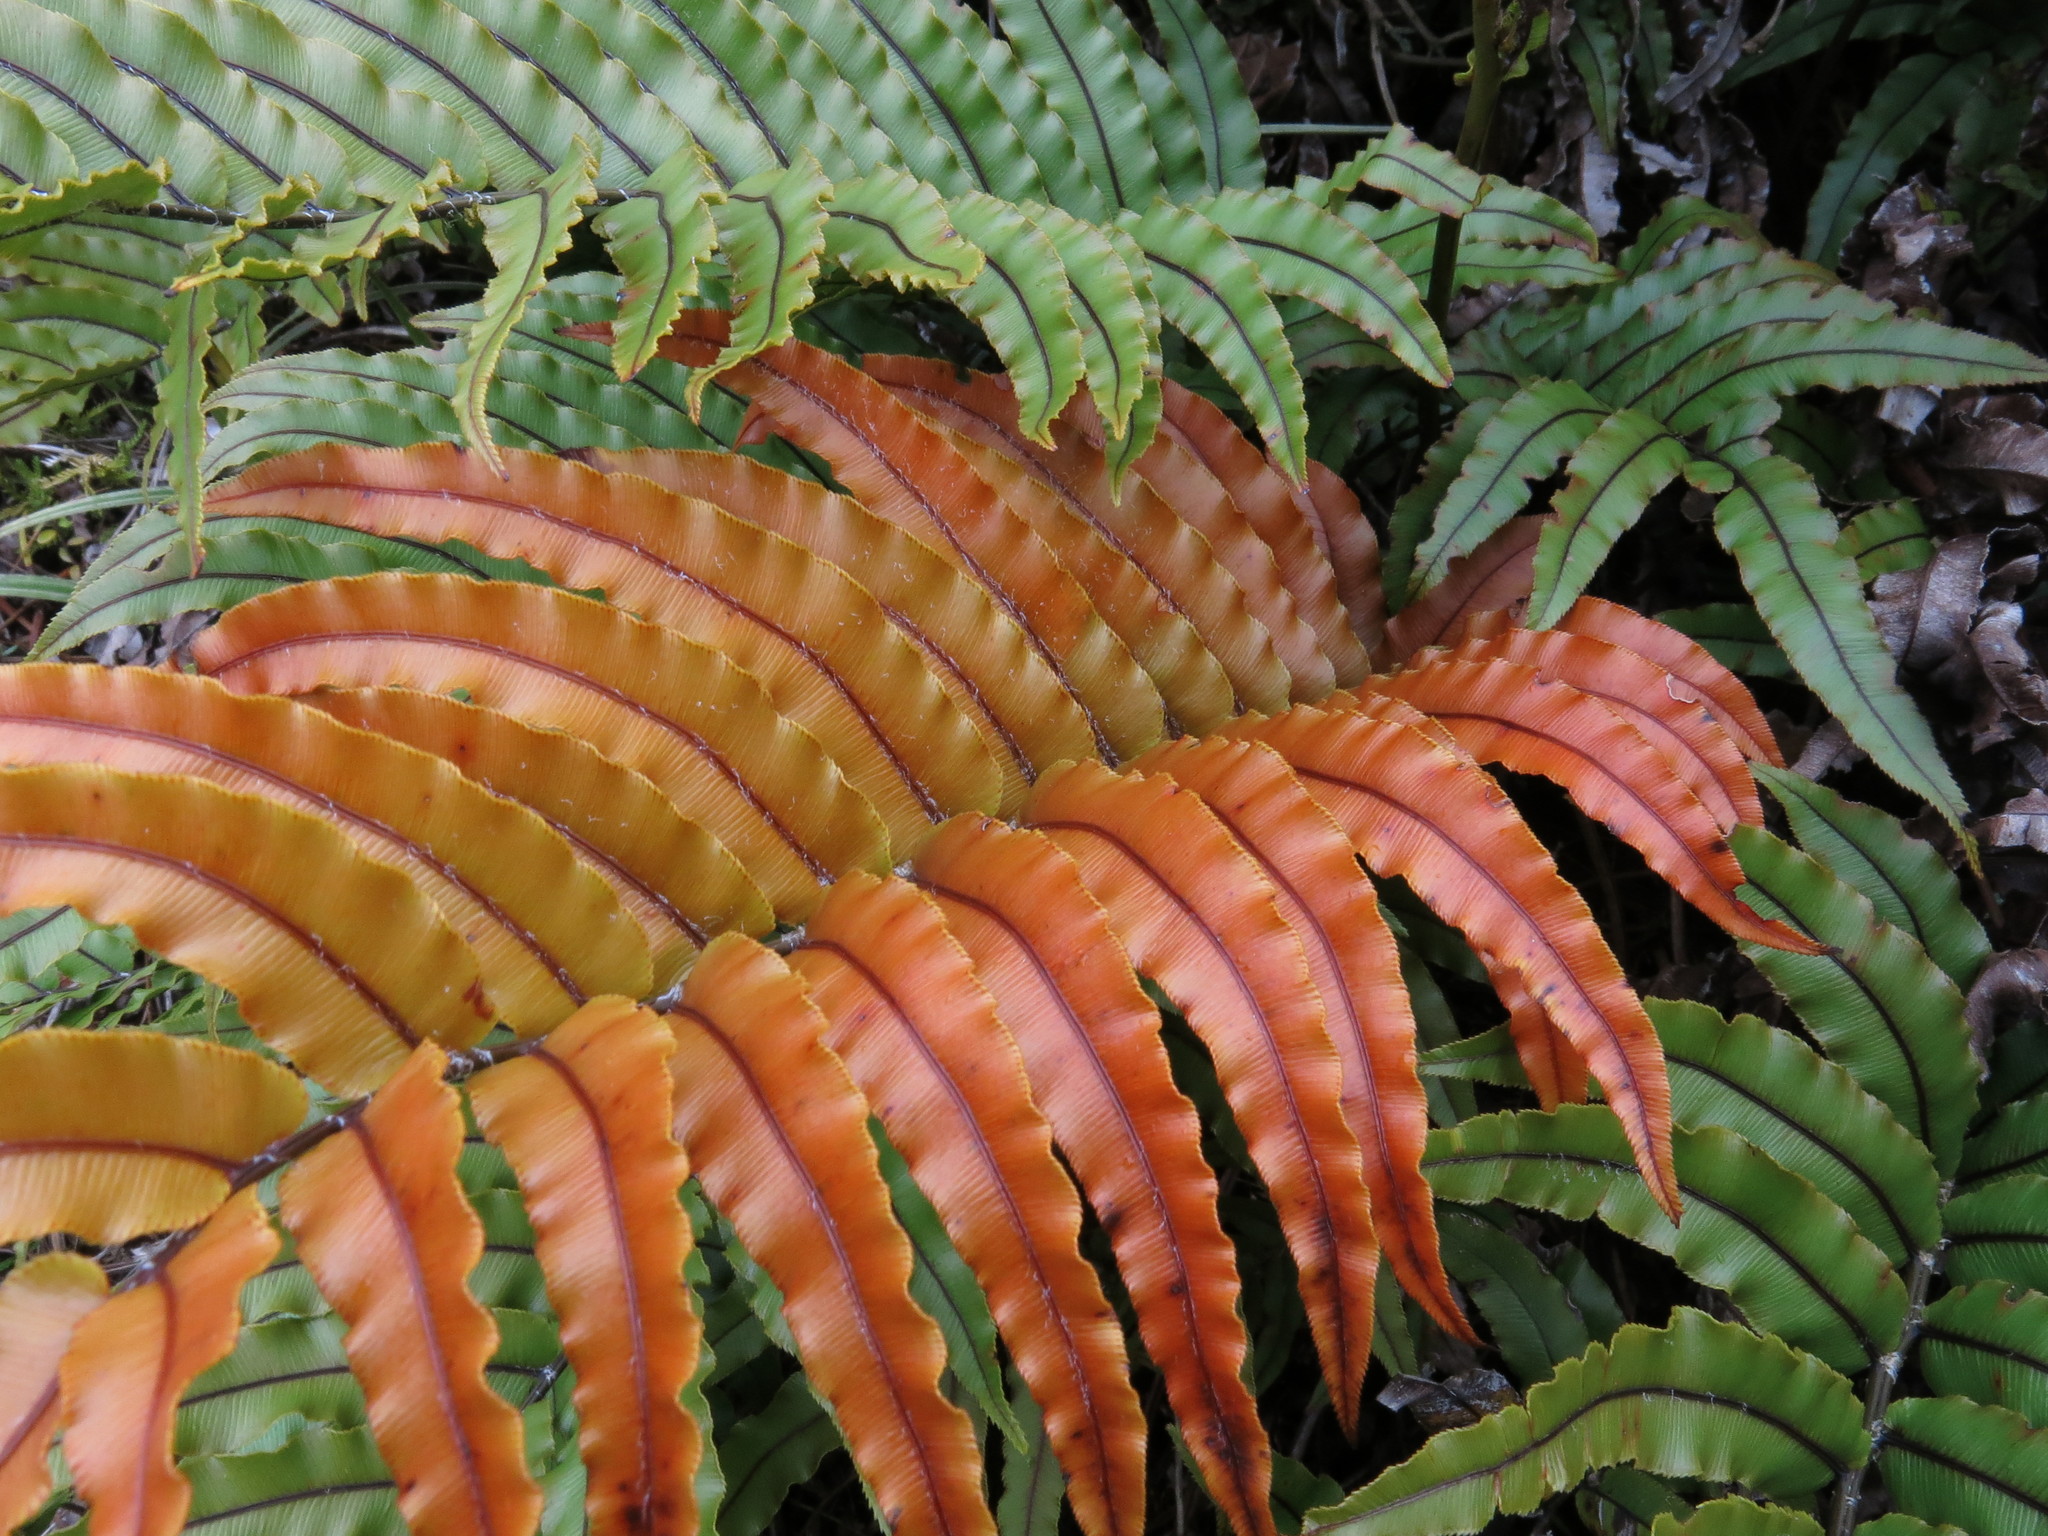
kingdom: Plantae
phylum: Tracheophyta
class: Polypodiopsida
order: Polypodiales
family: Blechnaceae
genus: Parablechnum
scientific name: Parablechnum montanum
